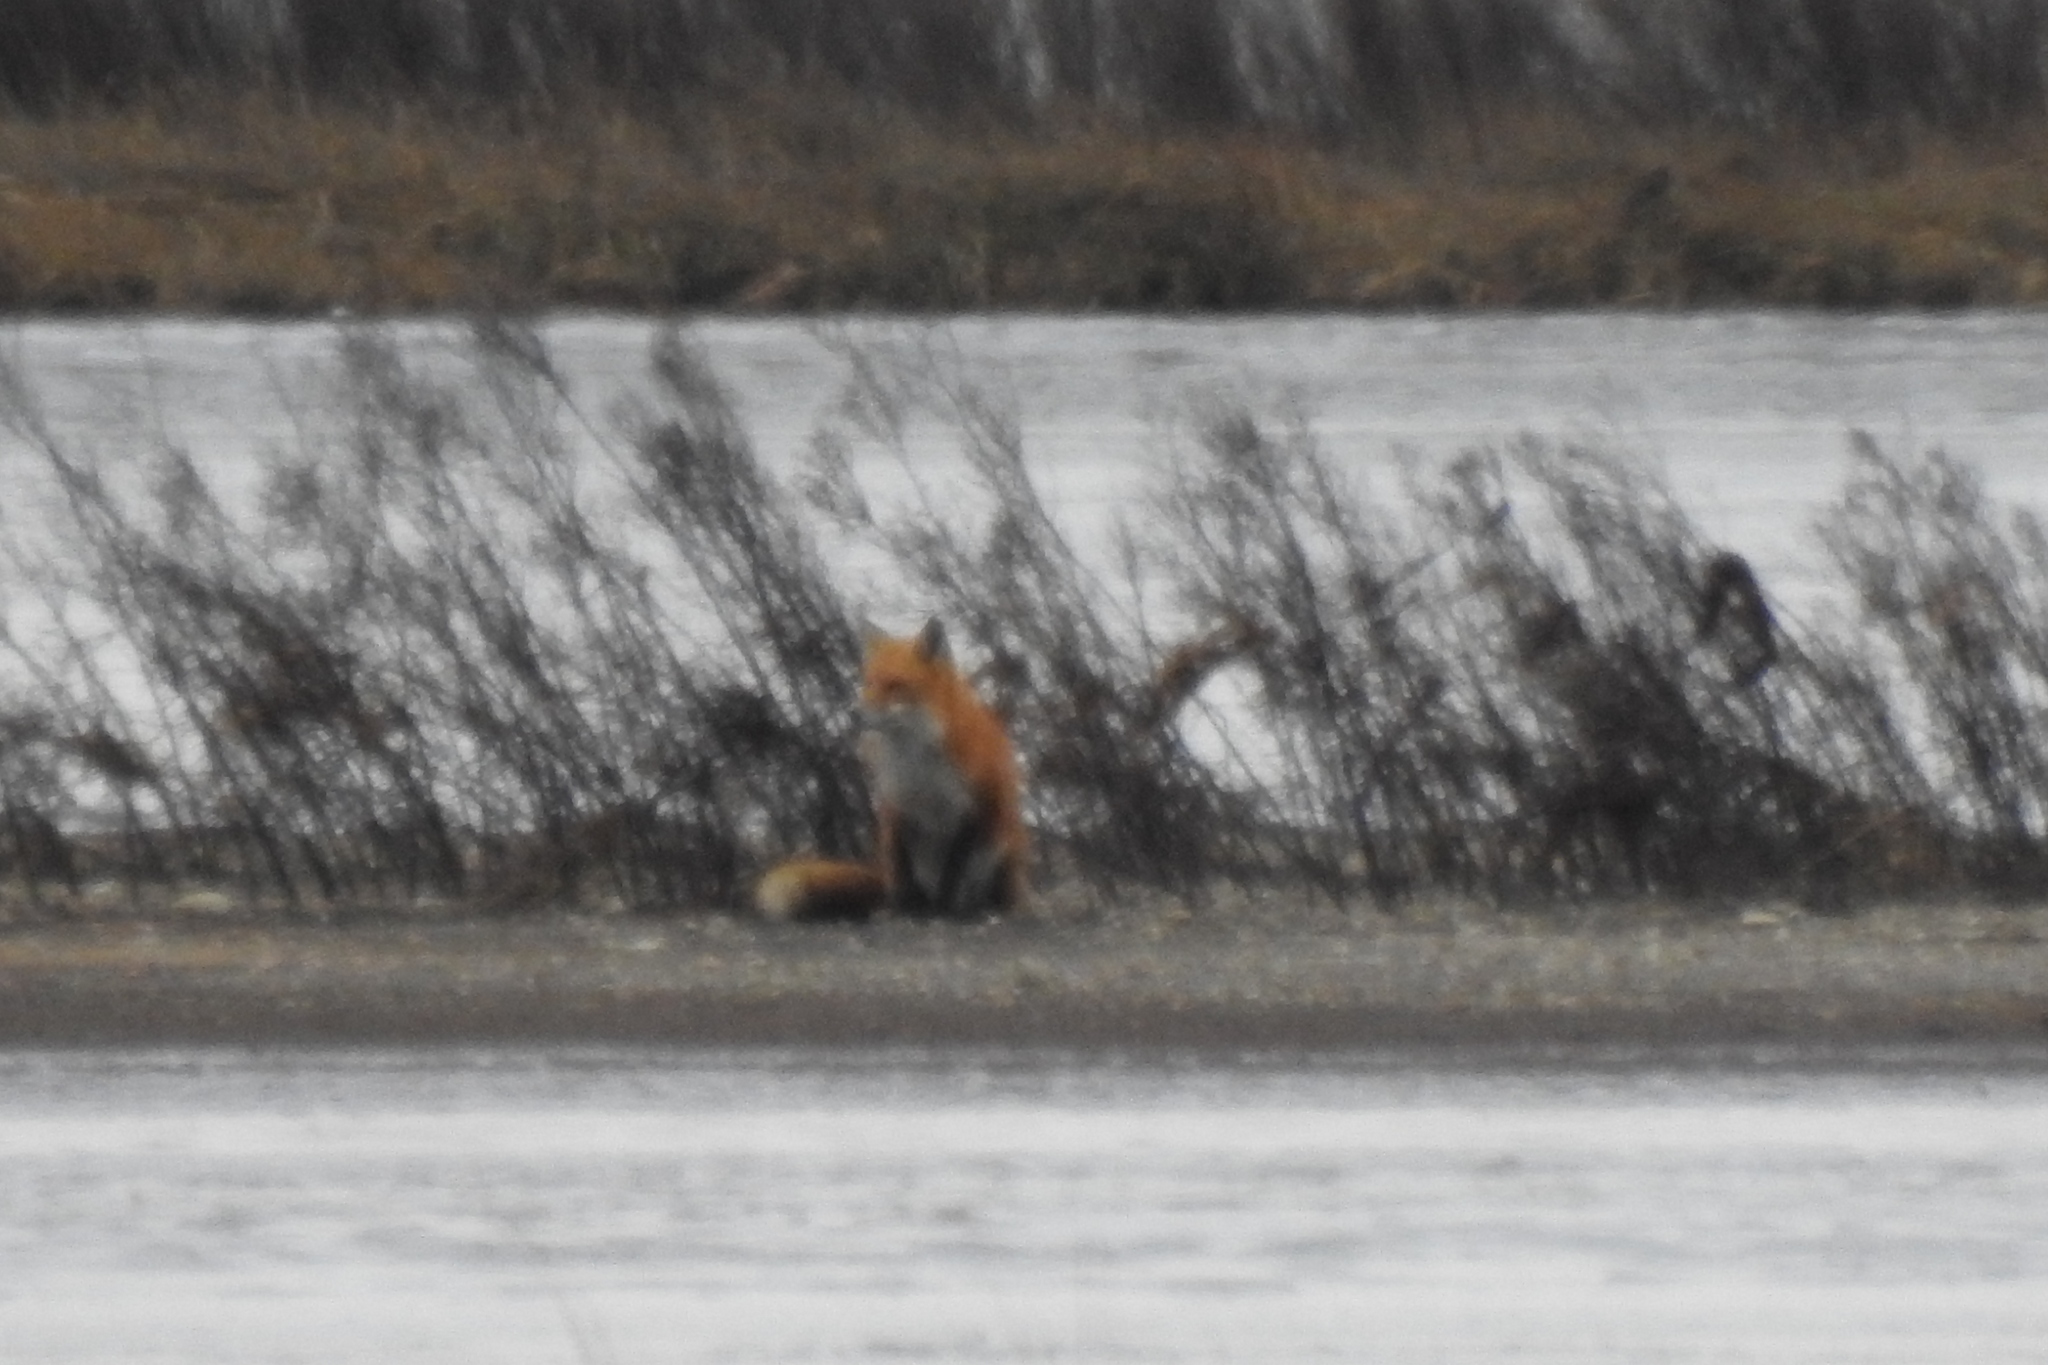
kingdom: Animalia
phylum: Chordata
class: Mammalia
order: Carnivora
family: Canidae
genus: Vulpes
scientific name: Vulpes vulpes
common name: Red fox
